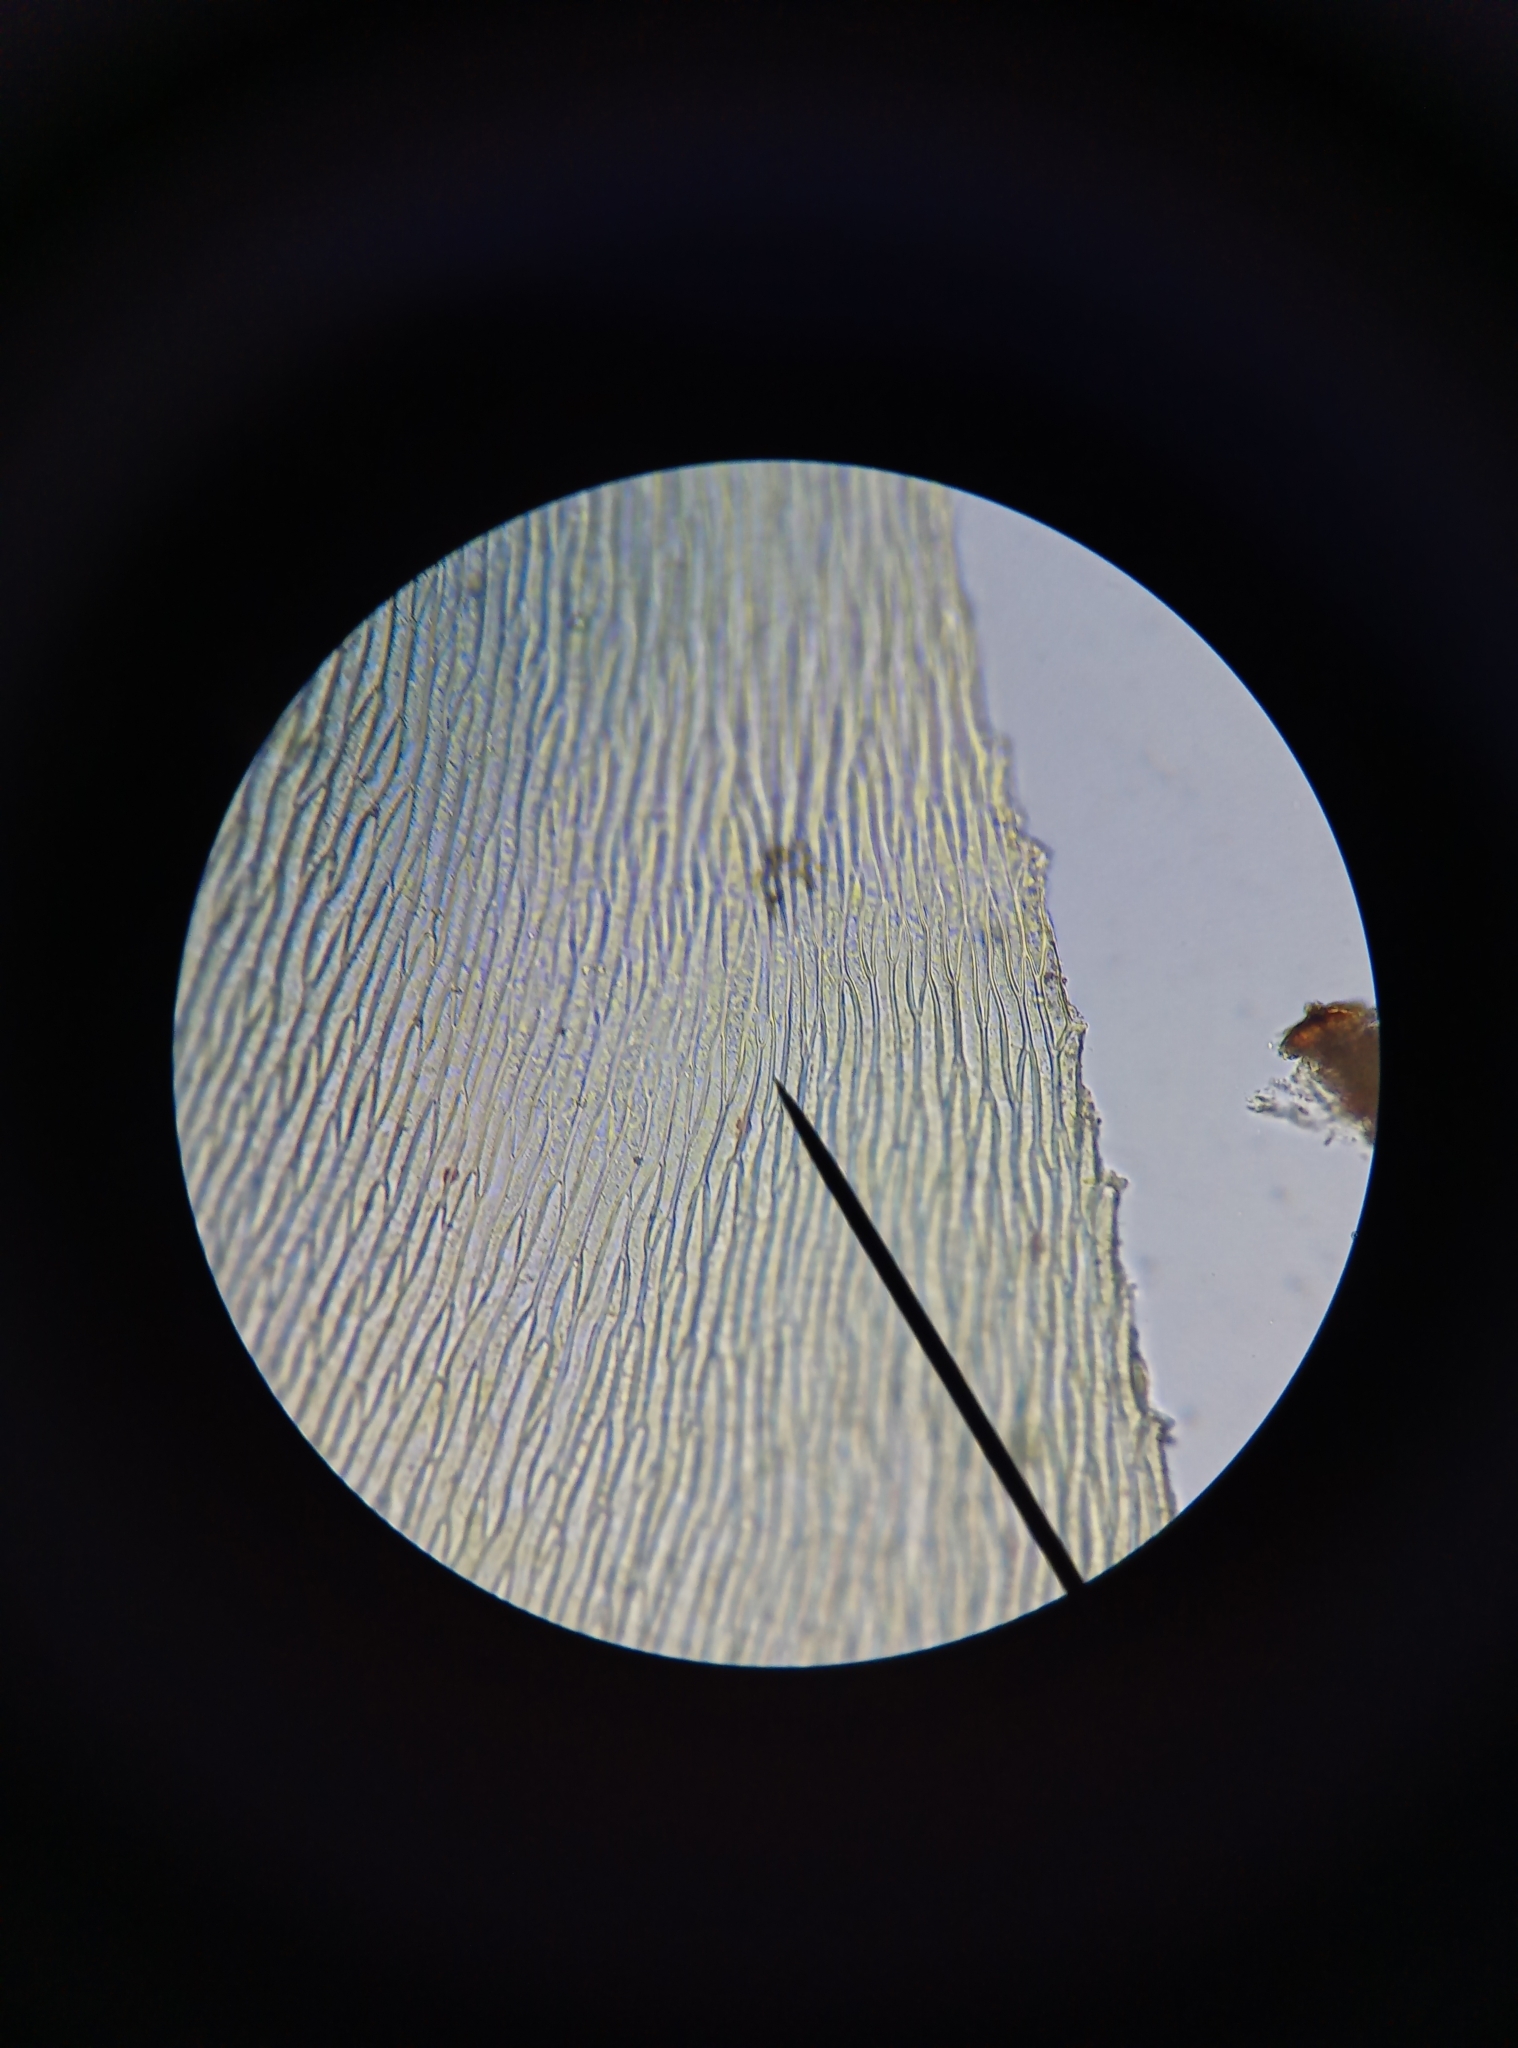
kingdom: Plantae
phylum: Bryophyta
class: Bryopsida
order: Hypnales
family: Brachytheciaceae
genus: Rhynchostegium
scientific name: Rhynchostegium megapolitanum
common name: Megapolitan feather-moss
